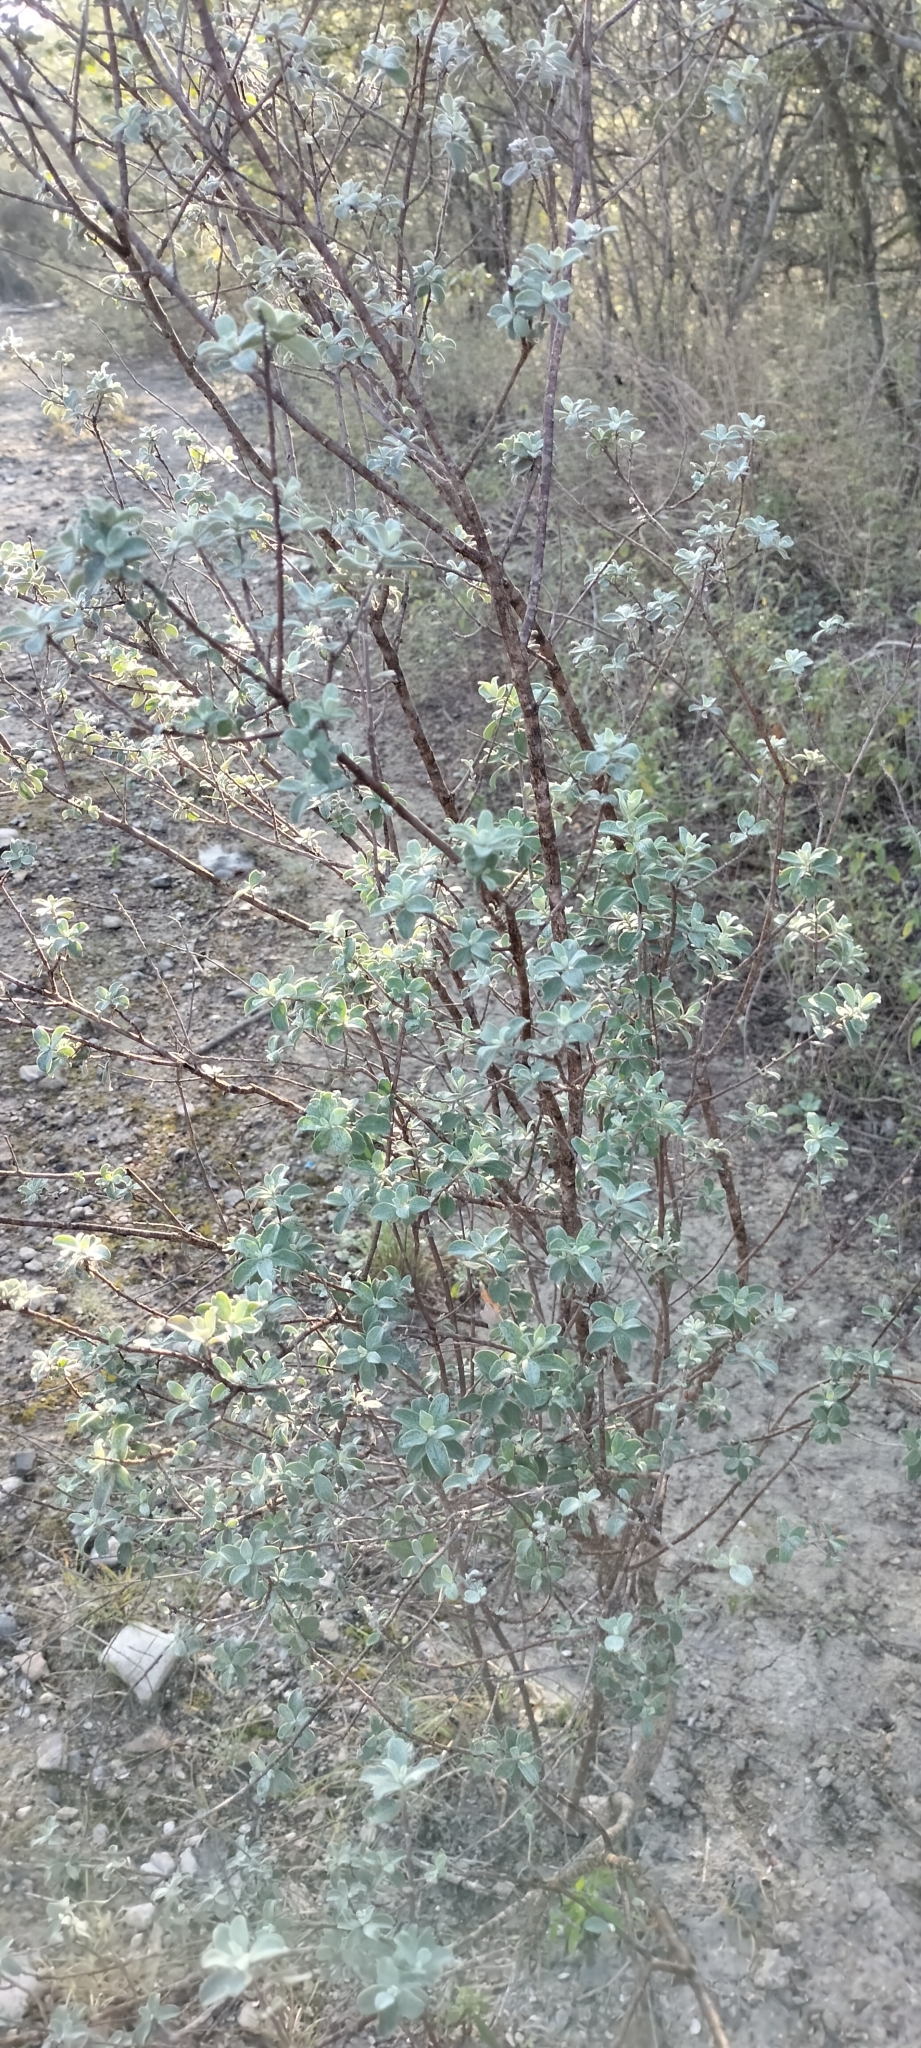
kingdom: Plantae
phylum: Tracheophyta
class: Magnoliopsida
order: Lamiales
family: Scrophulariaceae
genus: Leucophyllum
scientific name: Leucophyllum frutescens
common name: Texas silverleaf
